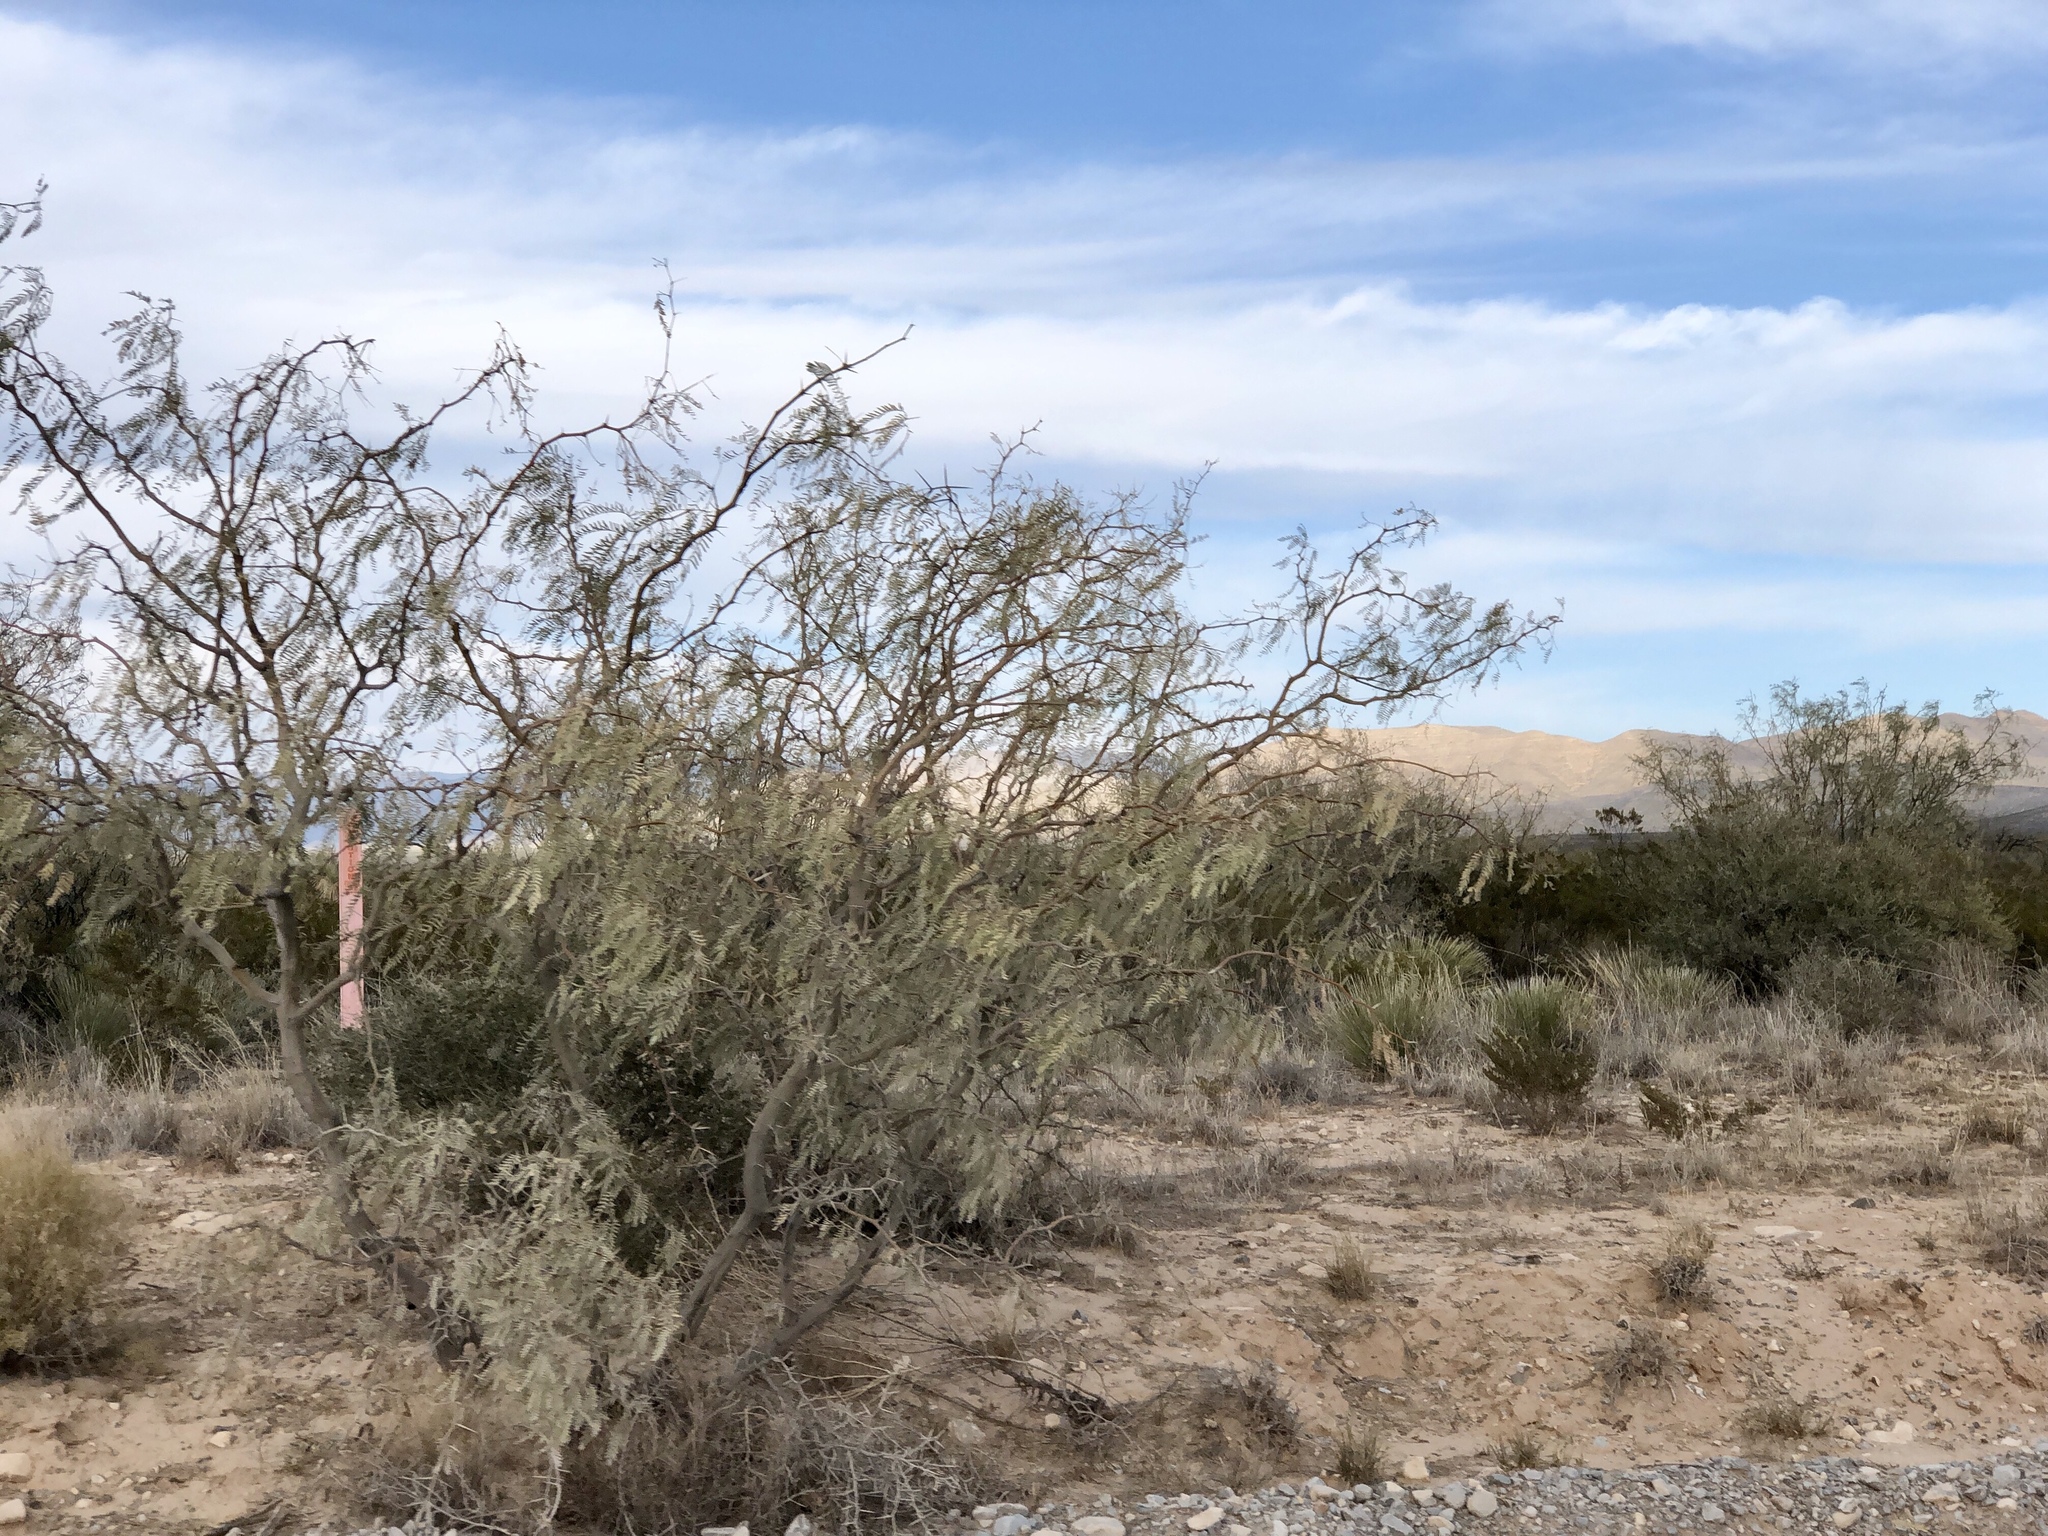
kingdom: Plantae
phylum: Tracheophyta
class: Magnoliopsida
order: Fabales
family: Fabaceae
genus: Prosopis
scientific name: Prosopis glandulosa
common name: Honey mesquite
